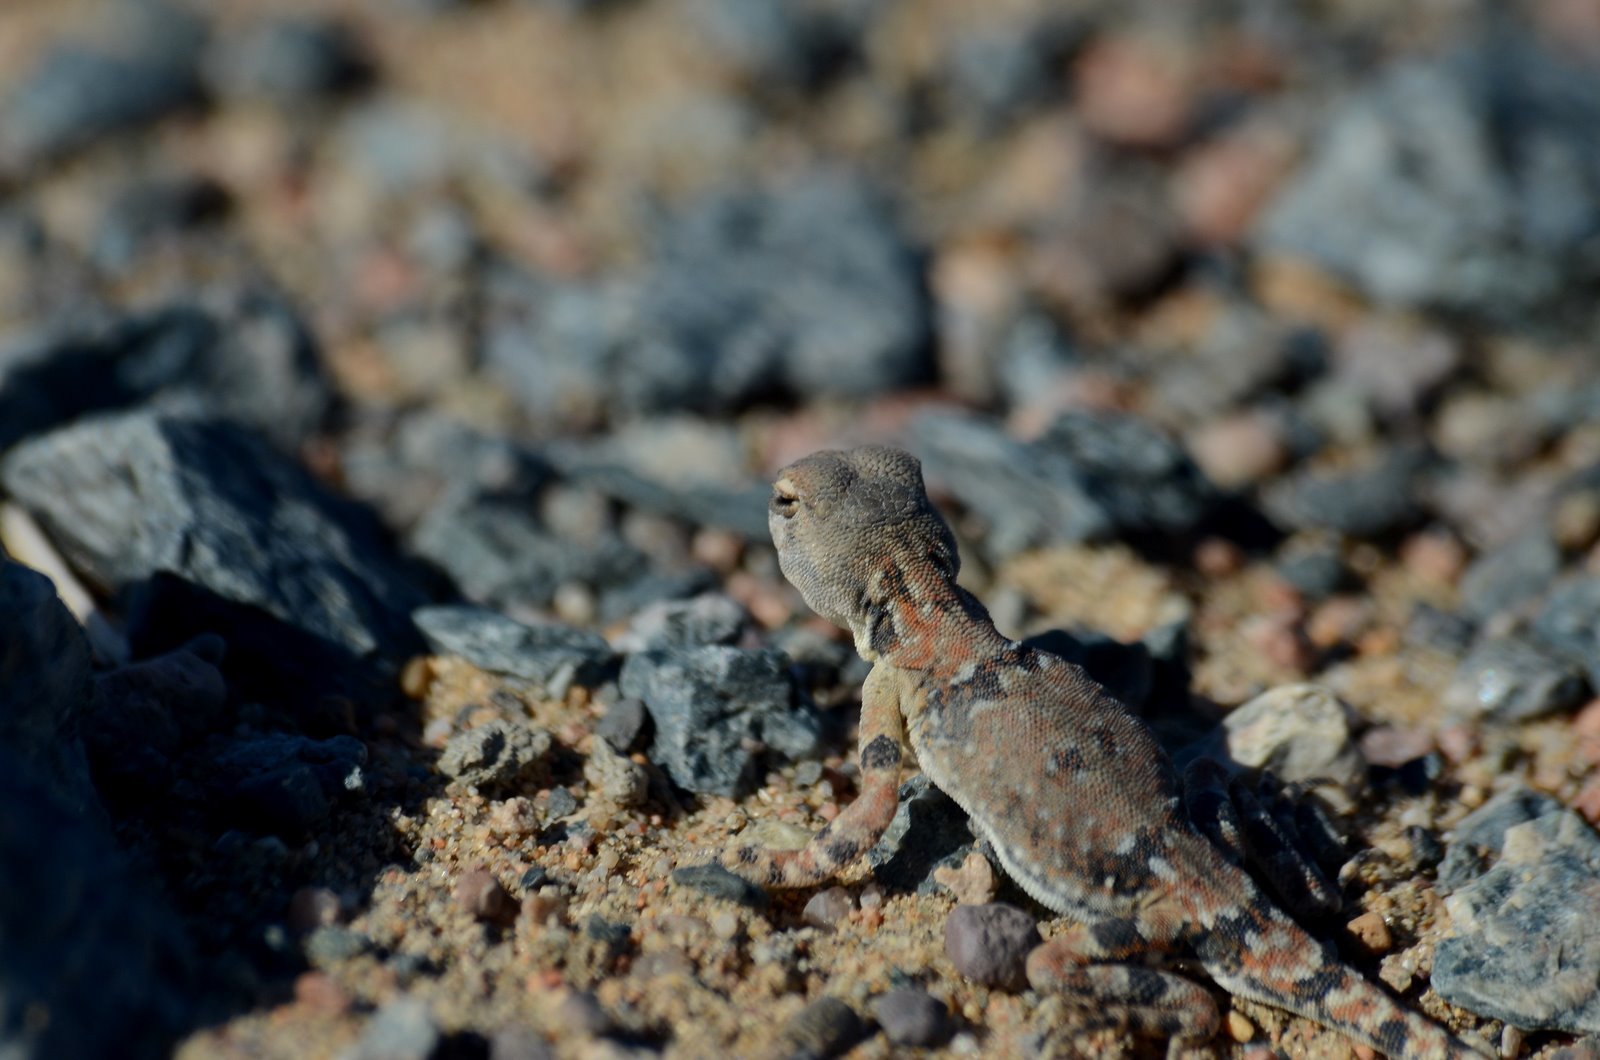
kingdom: Animalia
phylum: Chordata
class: Squamata
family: Agamidae
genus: Phrynocephalus
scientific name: Phrynocephalus versicolor
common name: Tuvan toad-headed agama
